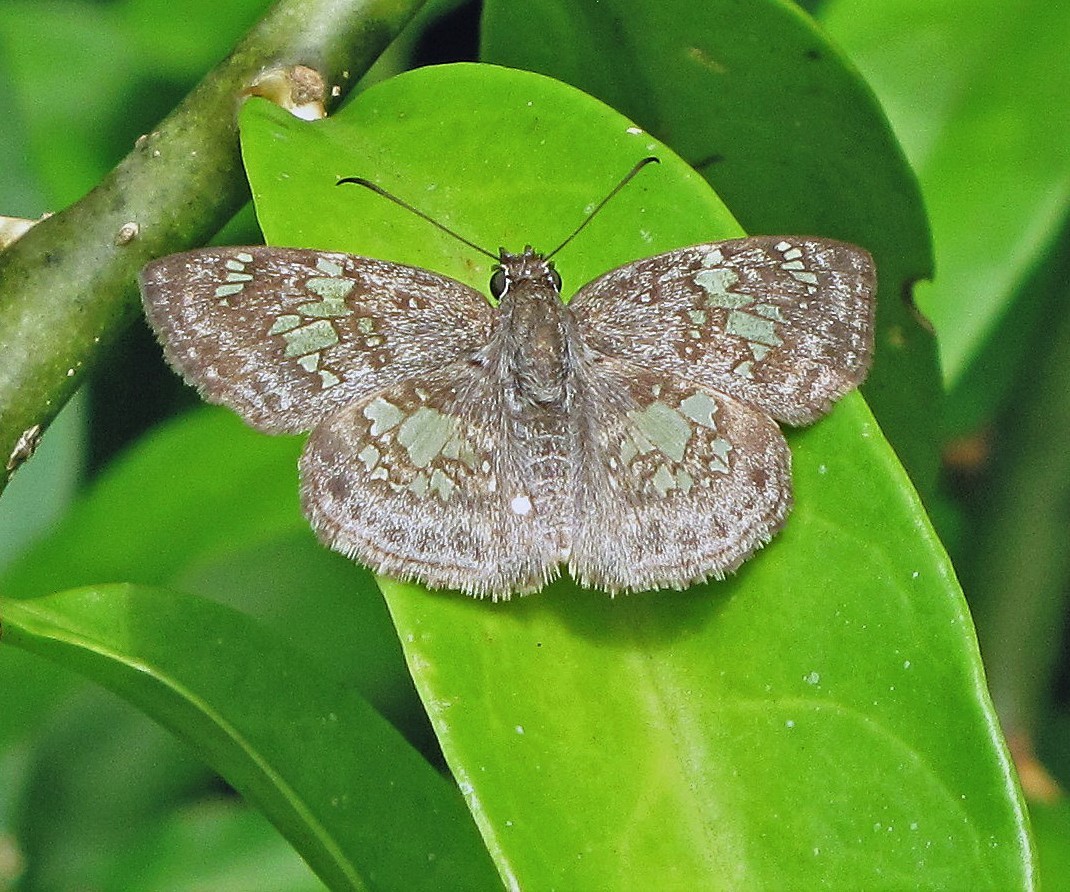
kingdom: Animalia
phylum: Arthropoda
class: Insecta
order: Lepidoptera
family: Hesperiidae
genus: Xenophanes
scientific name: Xenophanes tryxus
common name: Glassy-winged skipper
